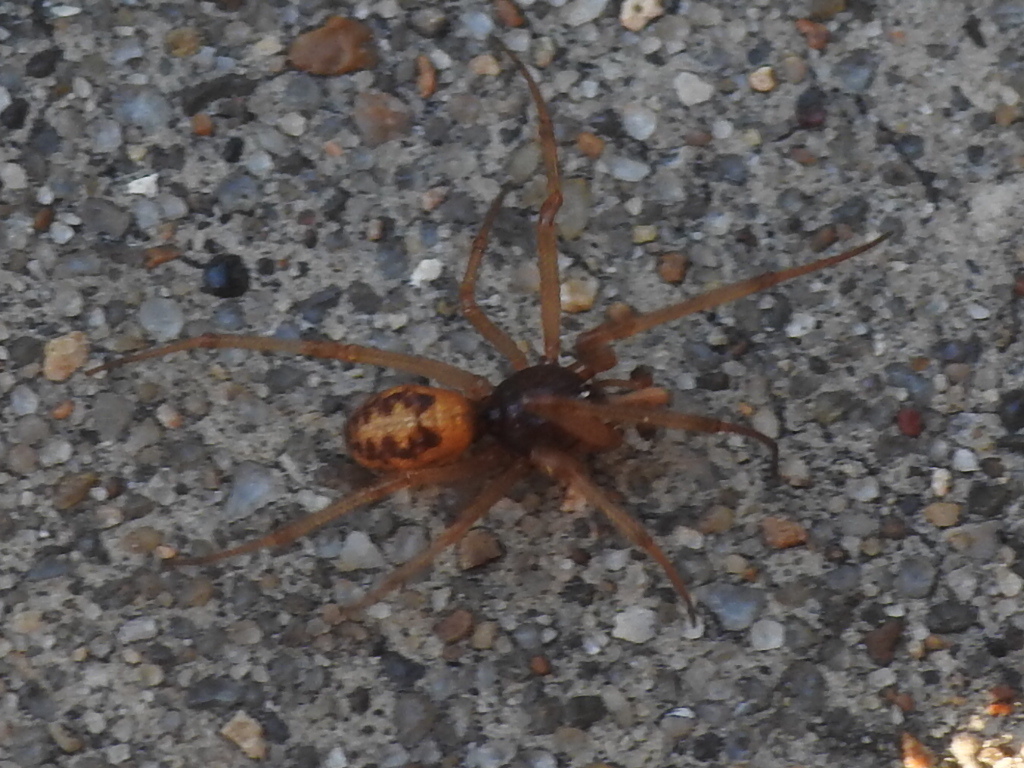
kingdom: Animalia
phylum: Arthropoda
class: Arachnida
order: Araneae
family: Theridiidae
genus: Steatoda
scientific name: Steatoda triangulosa
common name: Triangulate bud spider
